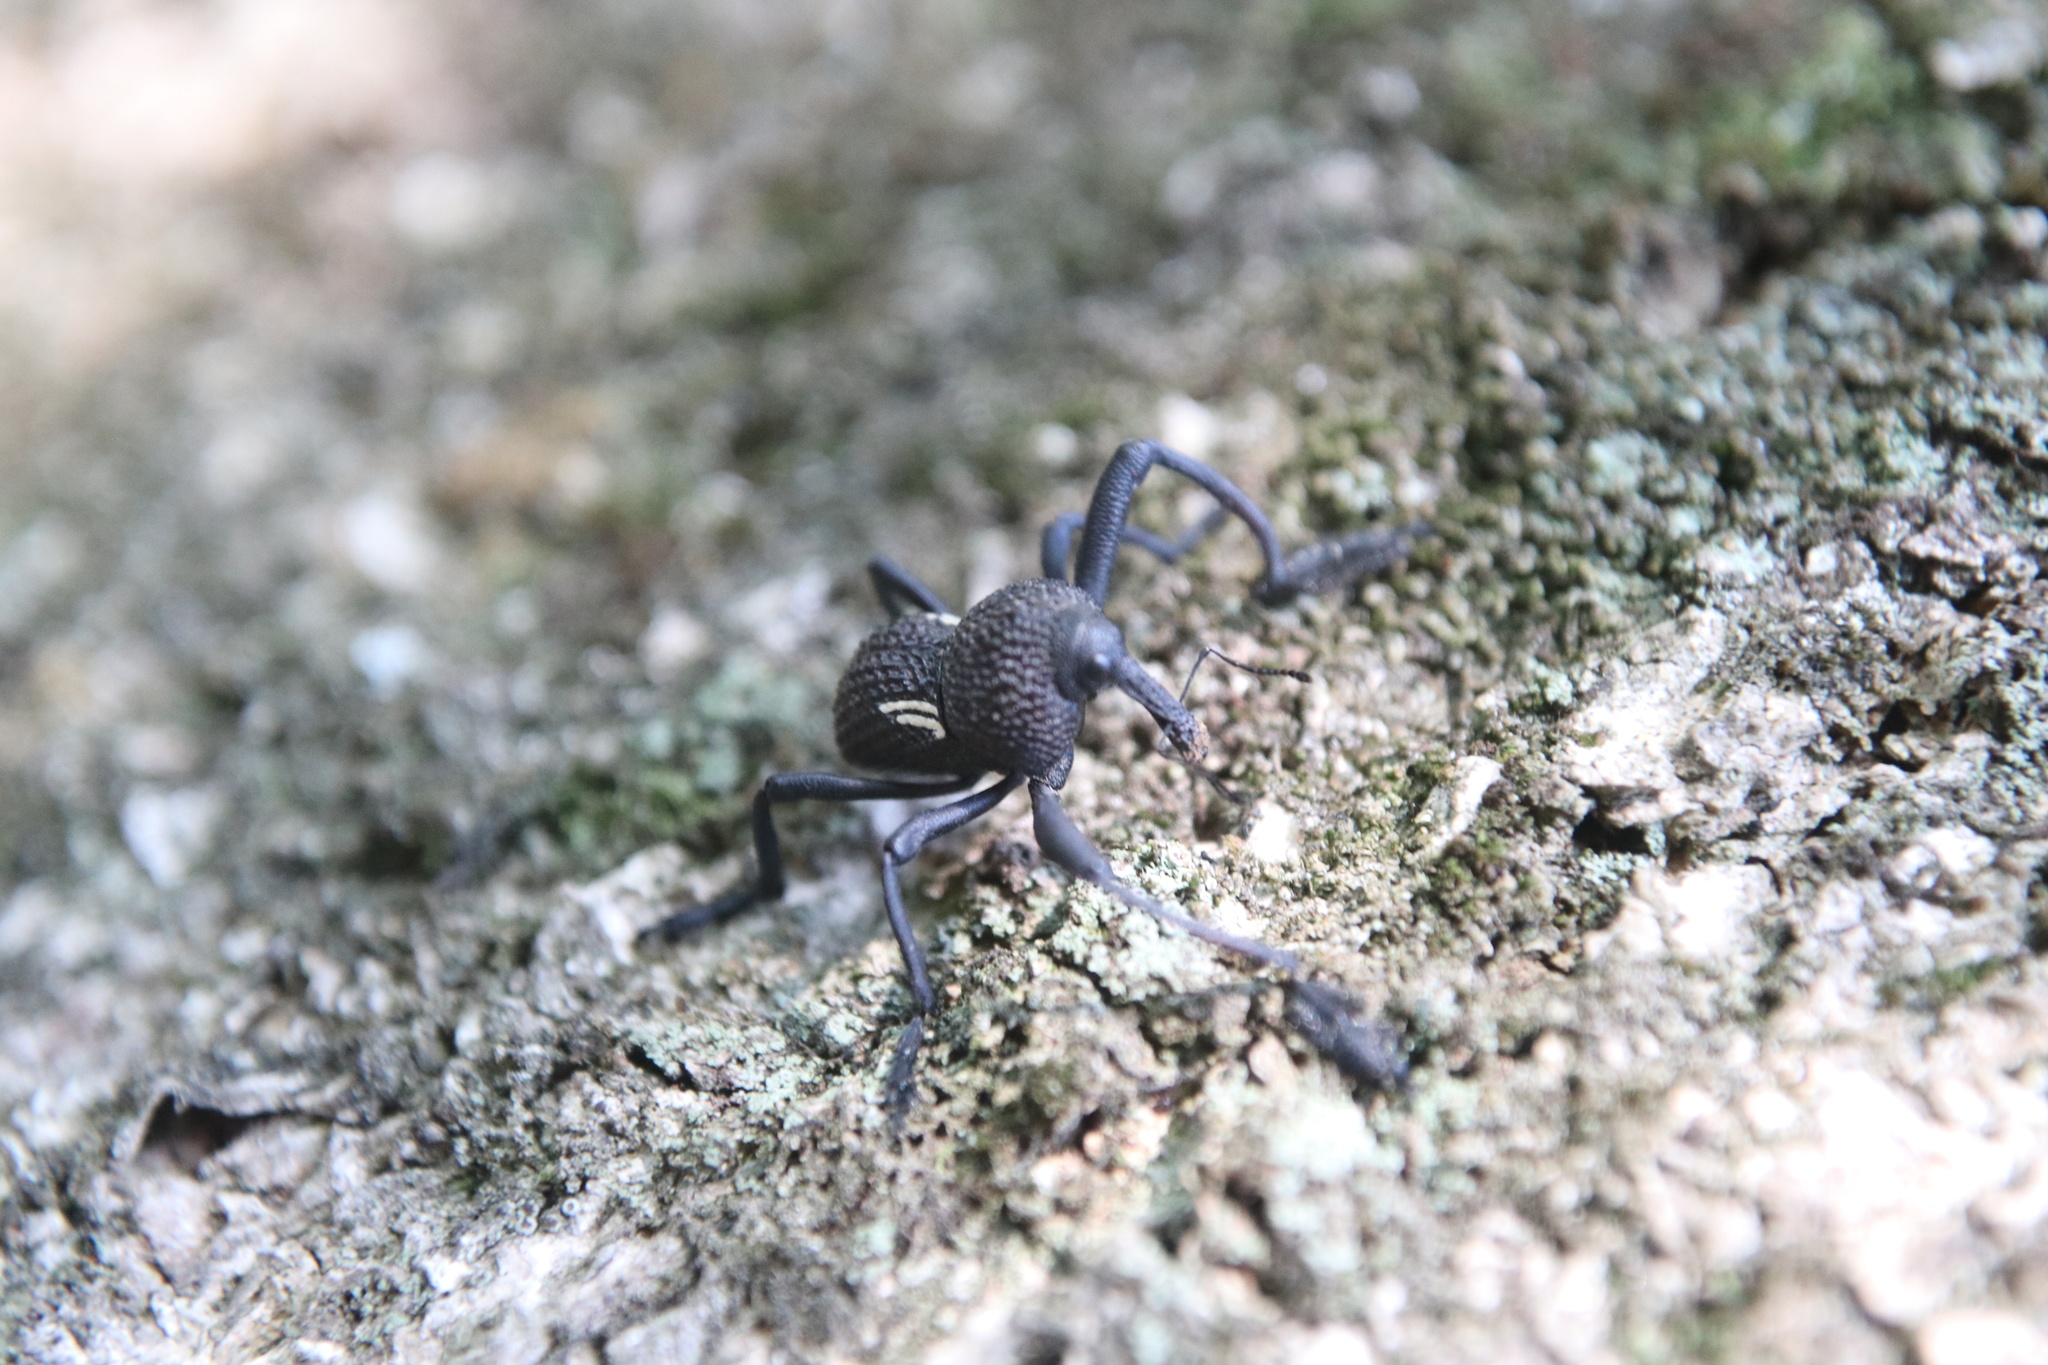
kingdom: Animalia
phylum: Arthropoda
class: Insecta
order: Coleoptera
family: Curculionidae
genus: Rhyephenes
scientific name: Rhyephenes humeralis
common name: Araè±ita chilena del pino
